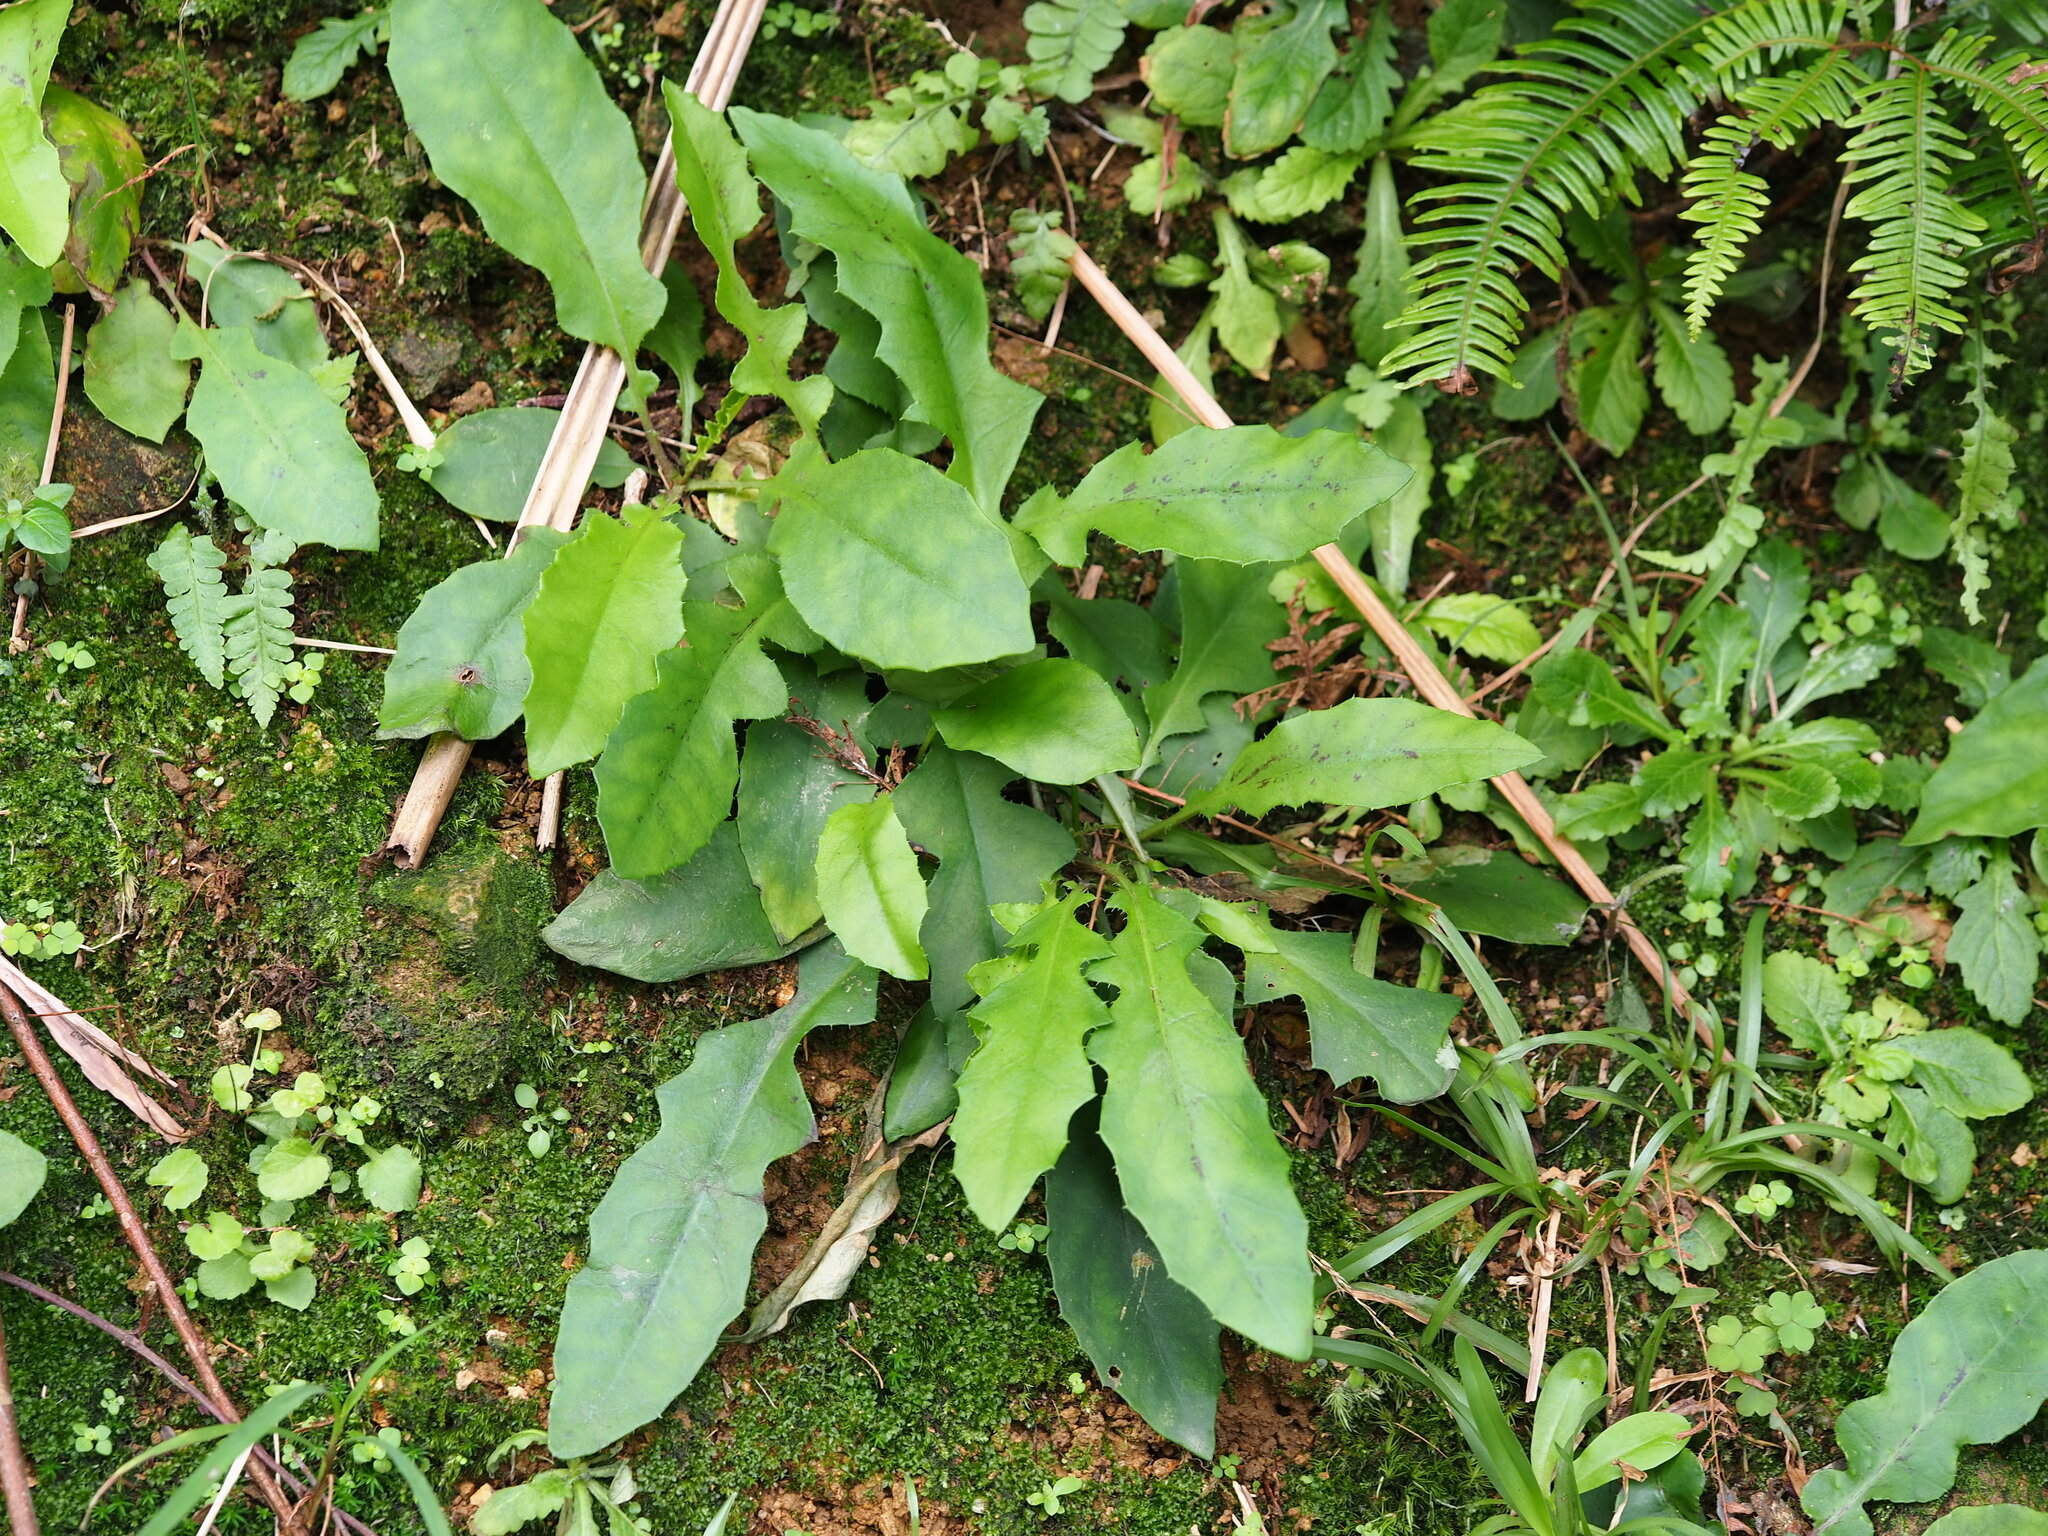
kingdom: Plantae
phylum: Tracheophyta
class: Magnoliopsida
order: Asterales
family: Asteraceae
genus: Ixeridium
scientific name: Ixeridium laevigatum
